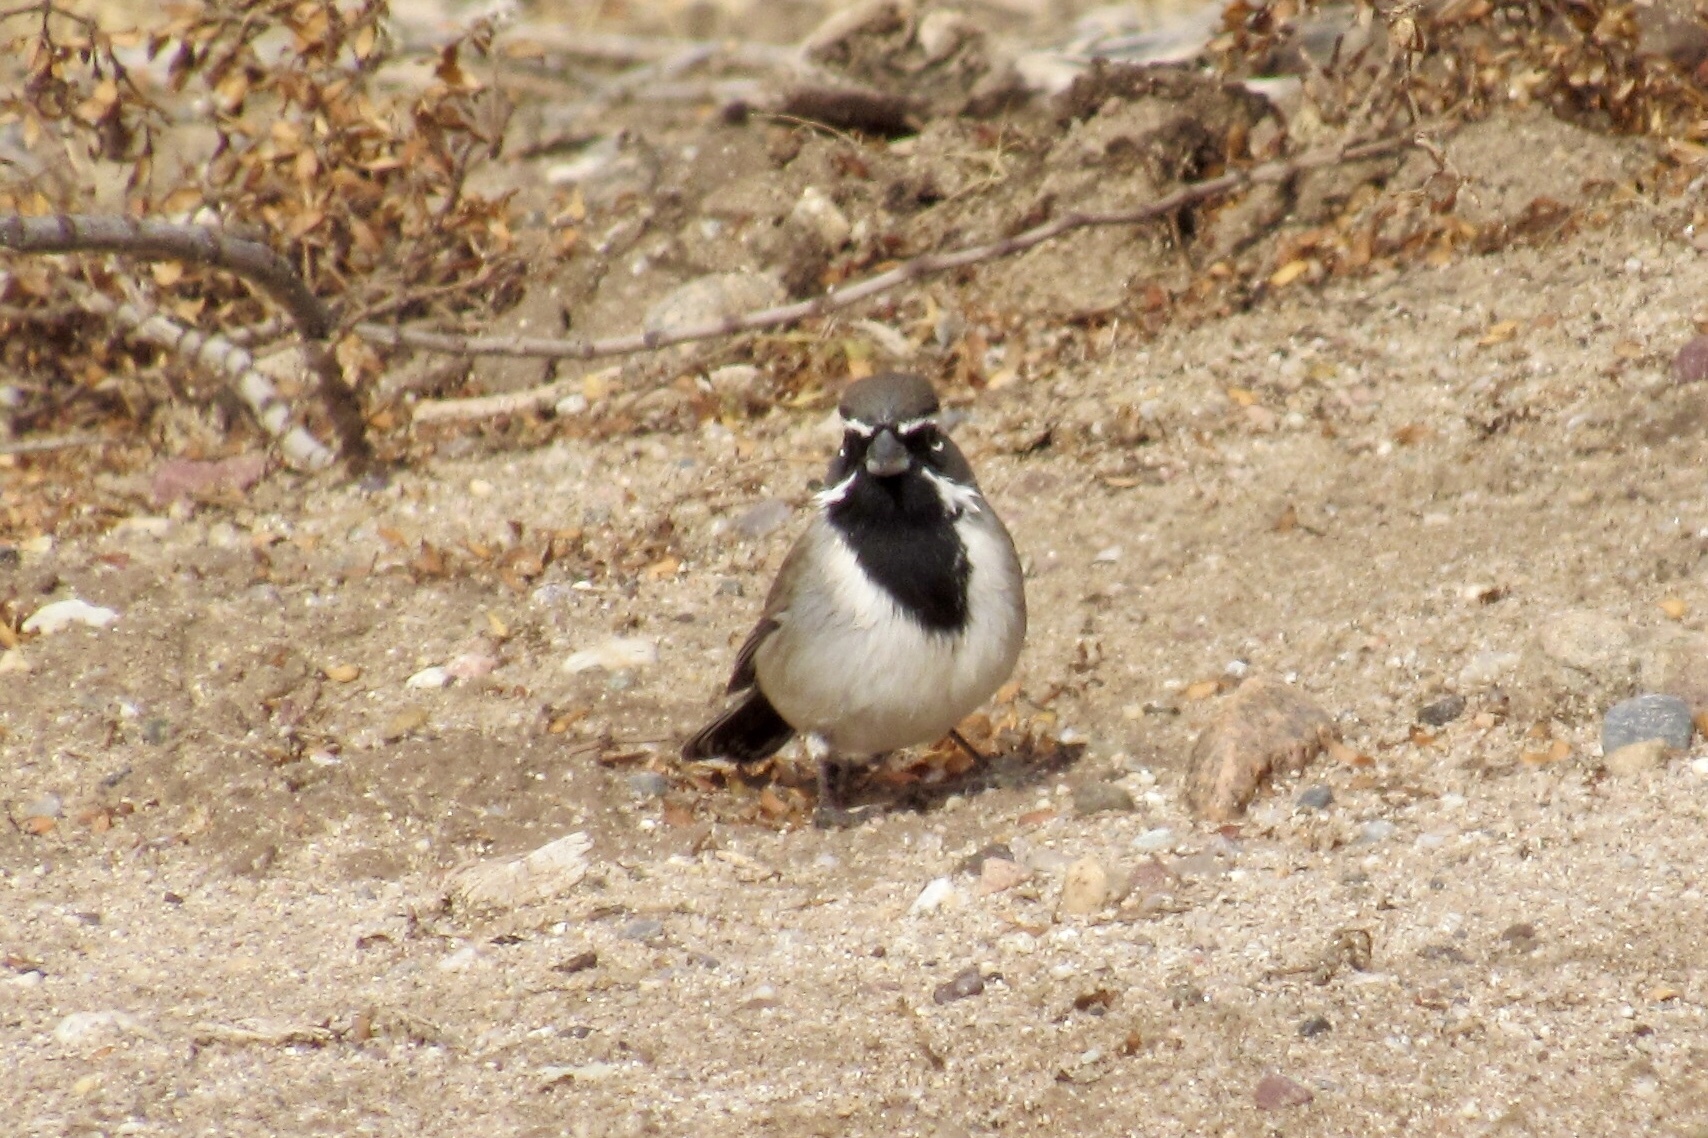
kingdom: Animalia
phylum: Chordata
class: Aves
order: Passeriformes
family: Passerellidae
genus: Amphispiza
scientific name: Amphispiza bilineata
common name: Black-throated sparrow
